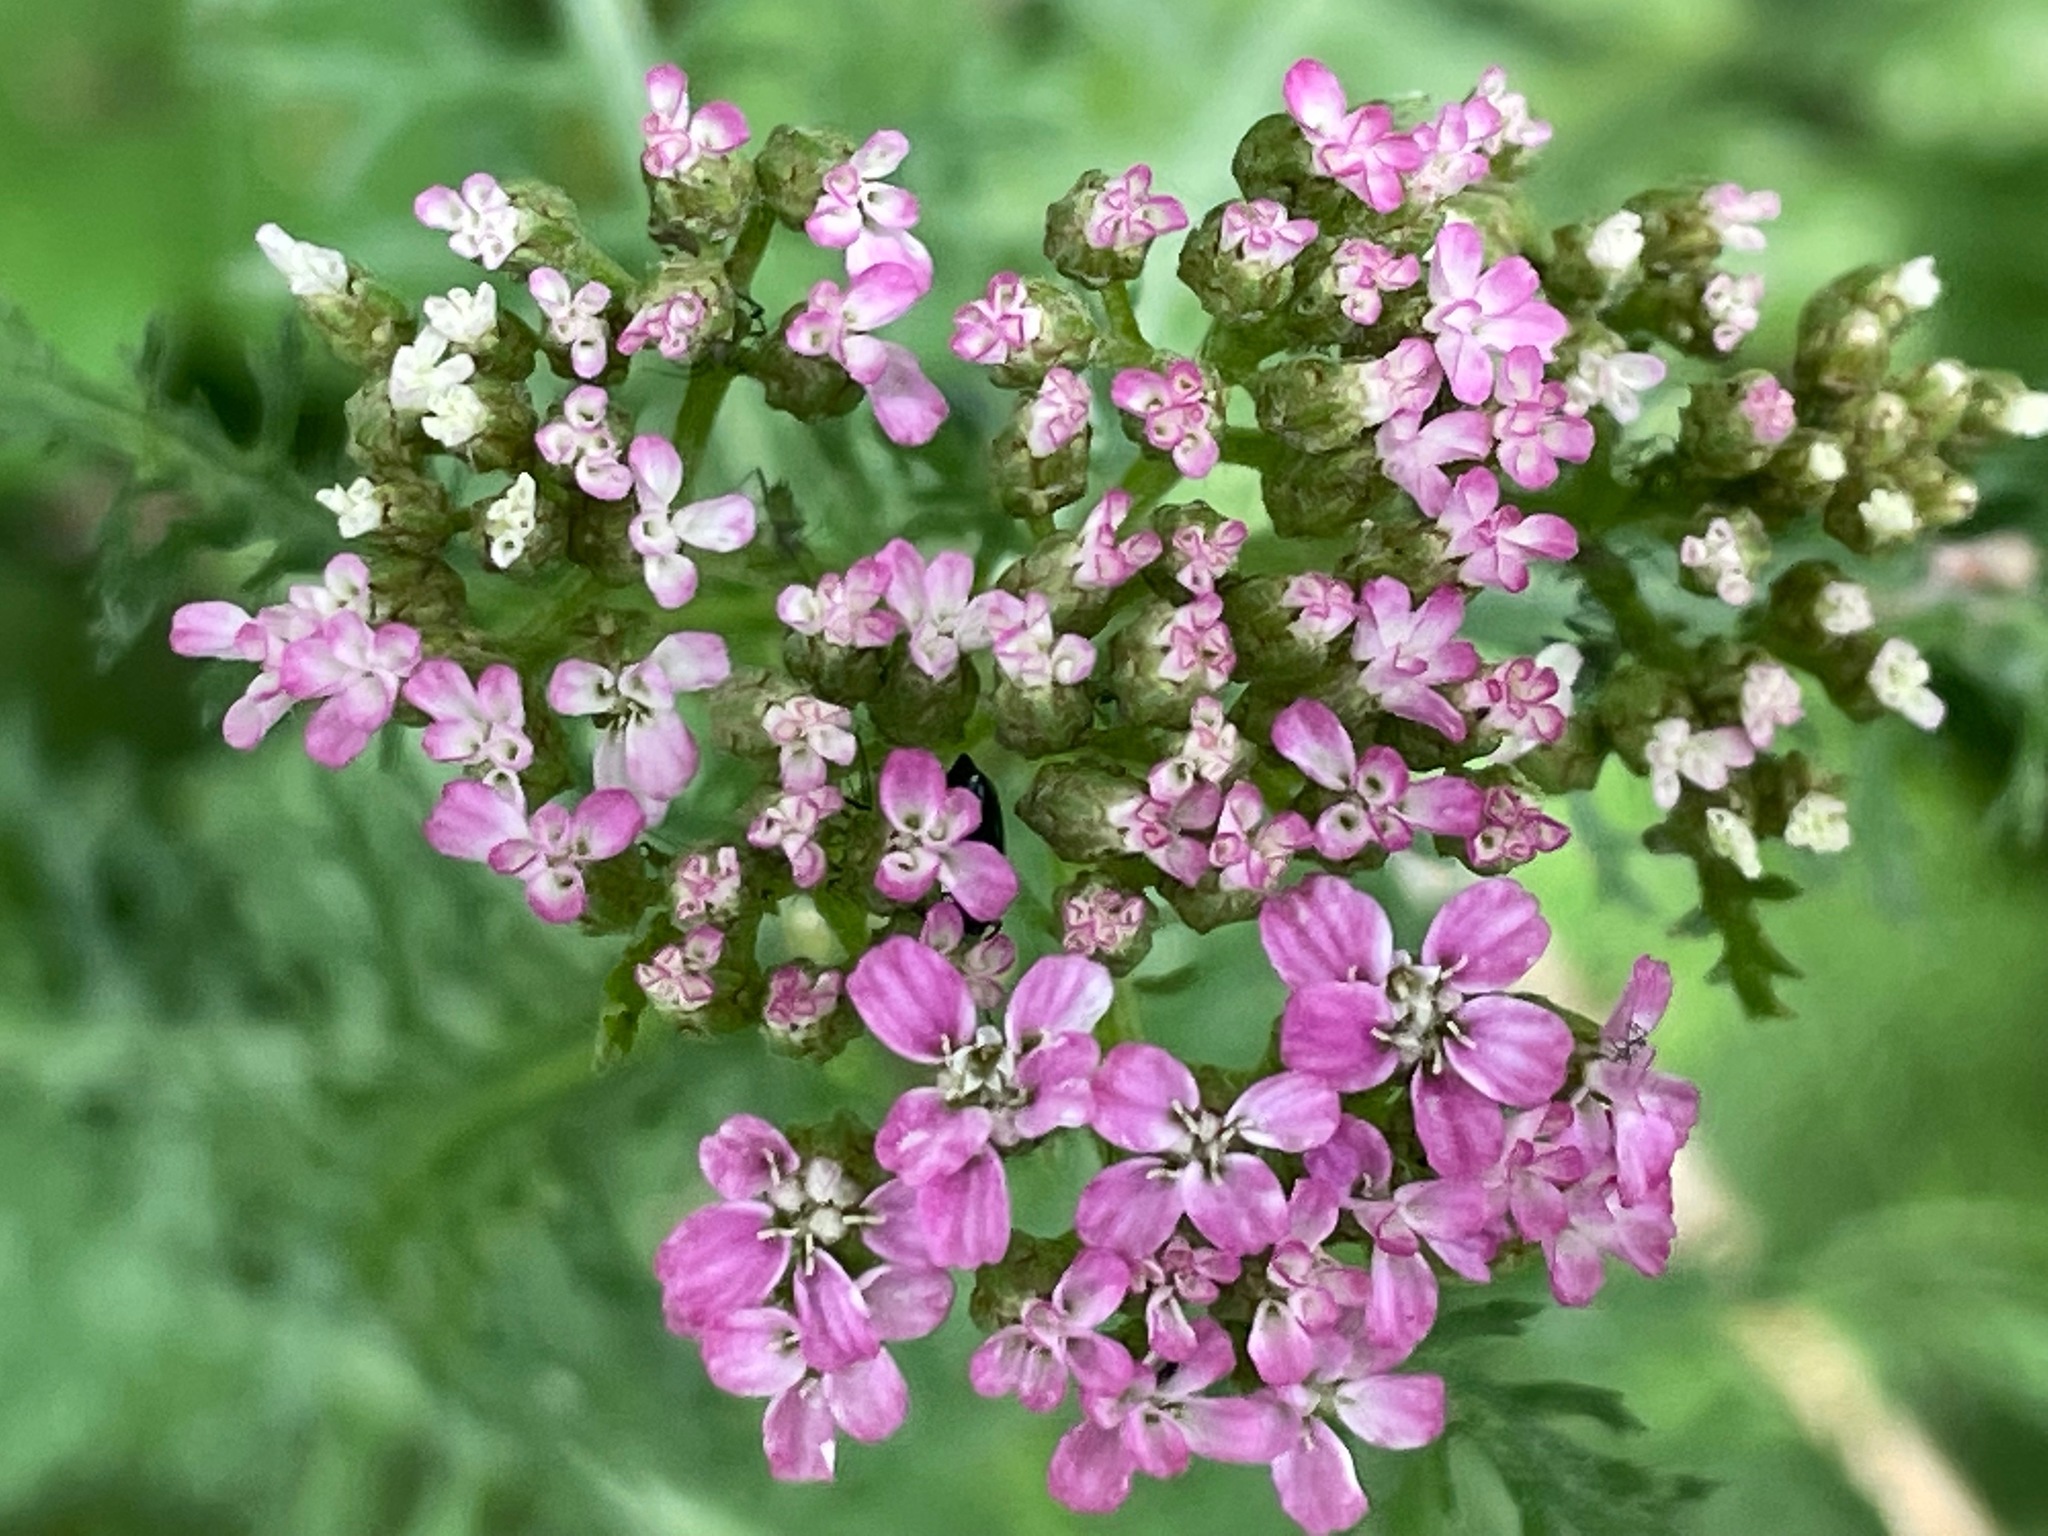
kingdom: Plantae
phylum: Tracheophyta
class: Magnoliopsida
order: Asterales
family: Asteraceae
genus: Achillea
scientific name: Achillea millefolium
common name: Yarrow
